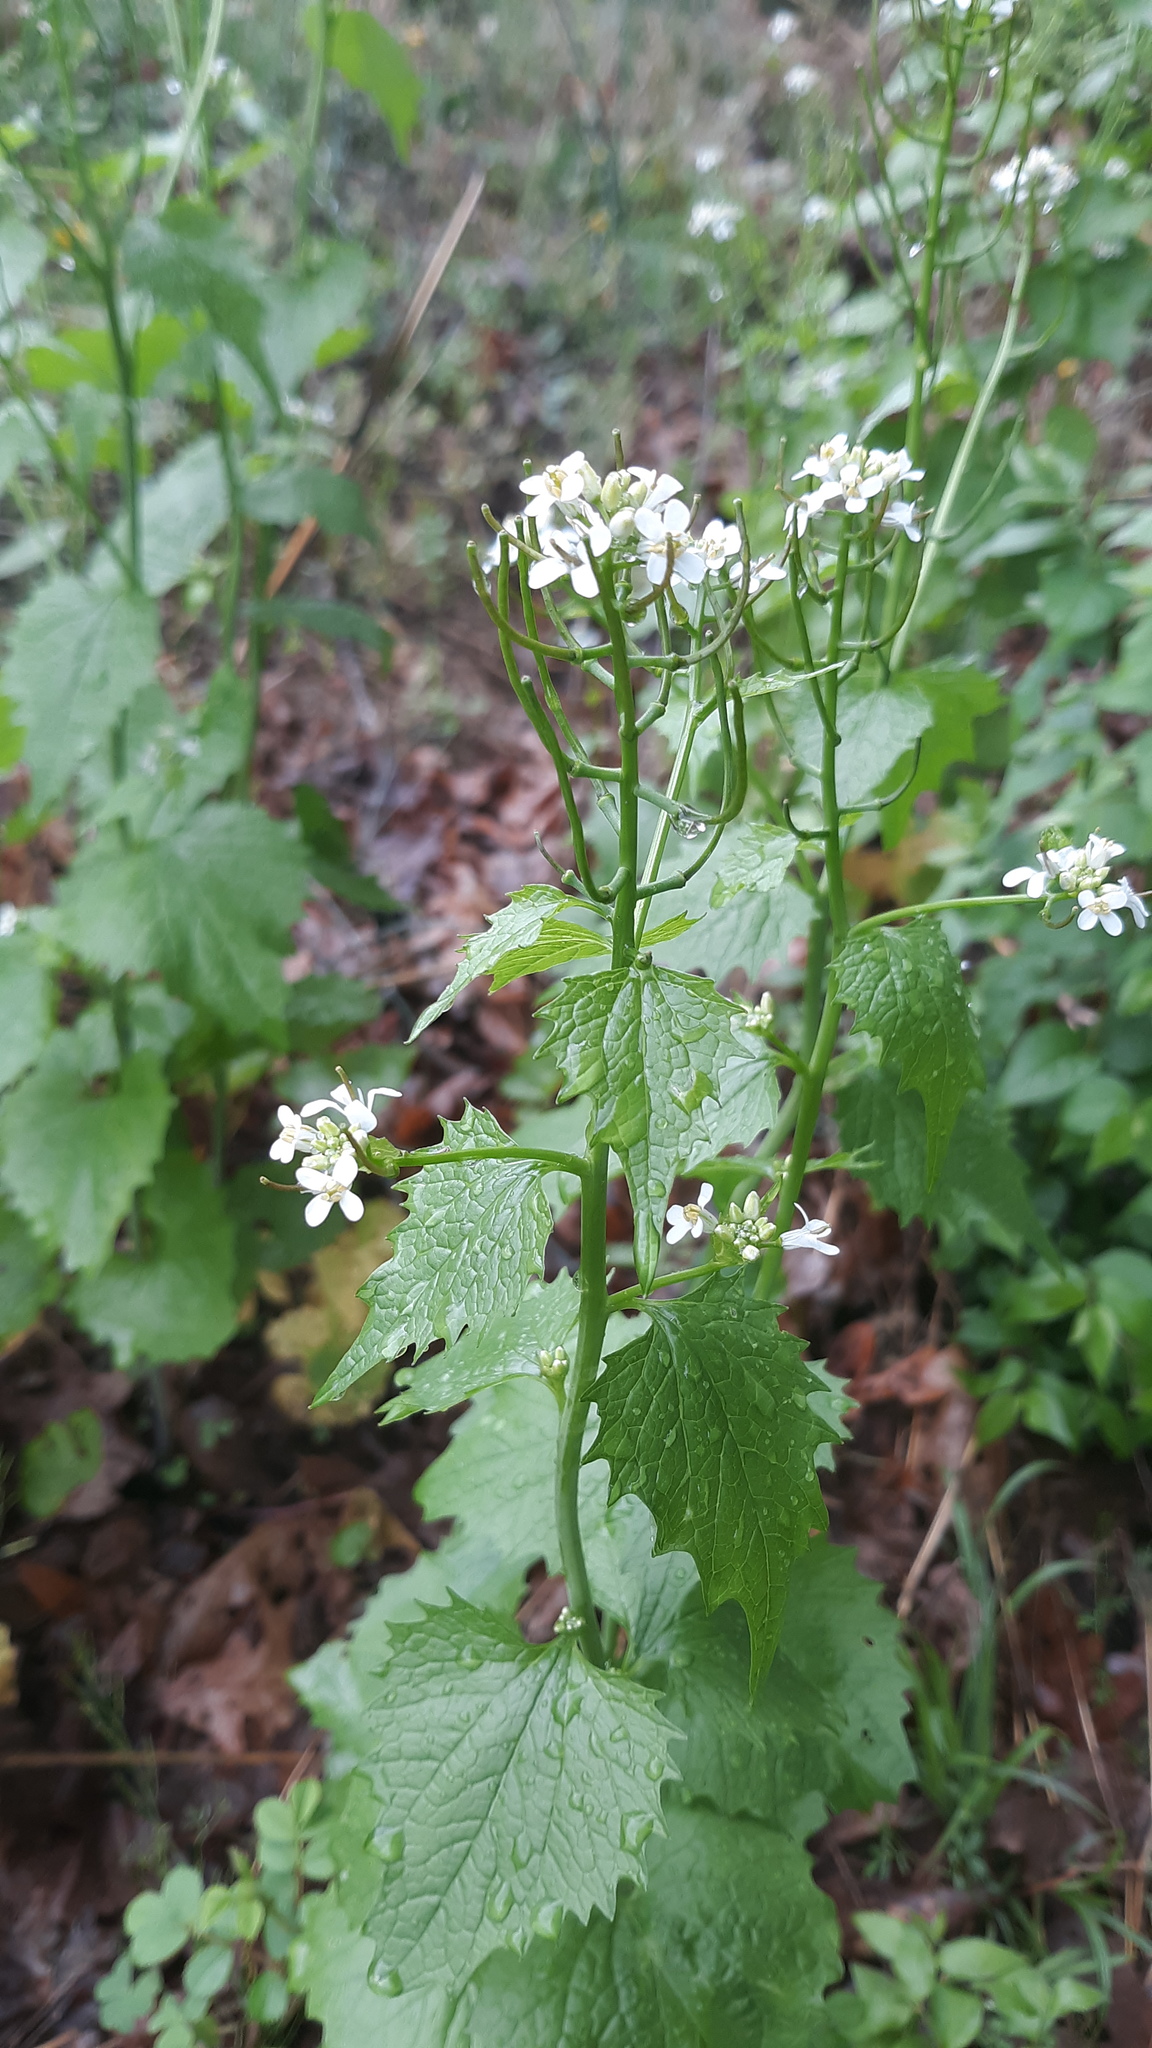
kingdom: Plantae
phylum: Tracheophyta
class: Magnoliopsida
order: Brassicales
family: Brassicaceae
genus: Alliaria
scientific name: Alliaria petiolata
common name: Garlic mustard
